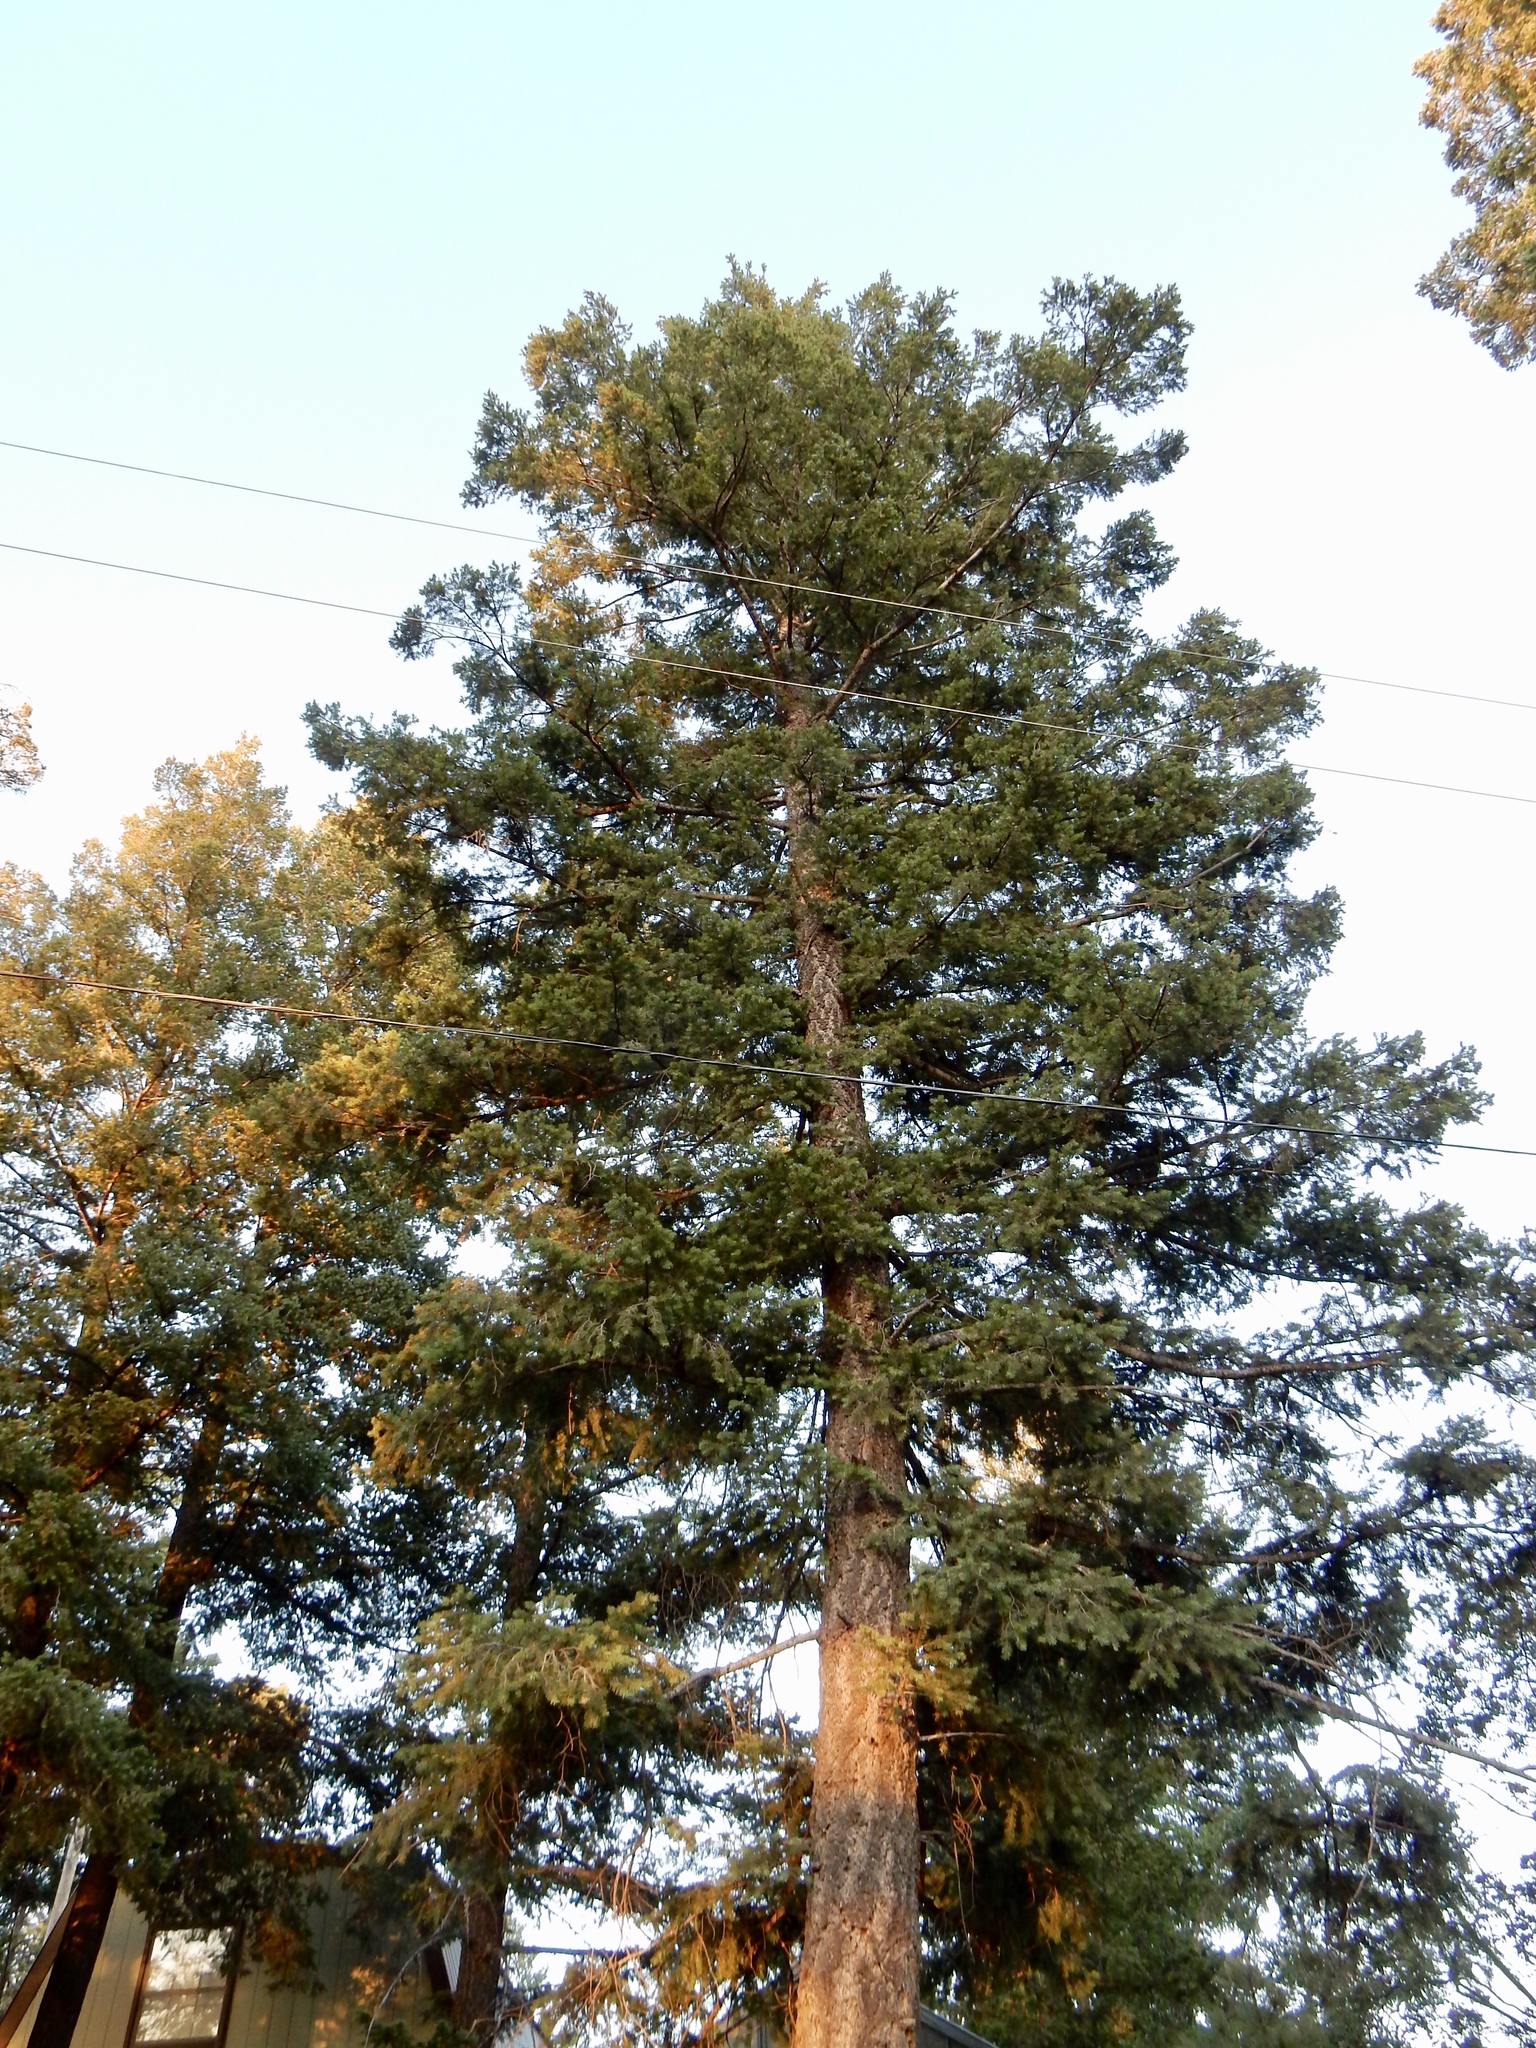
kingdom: Plantae
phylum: Tracheophyta
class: Pinopsida
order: Pinales
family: Pinaceae
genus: Pseudotsuga
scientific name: Pseudotsuga menziesii
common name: Douglas fir
